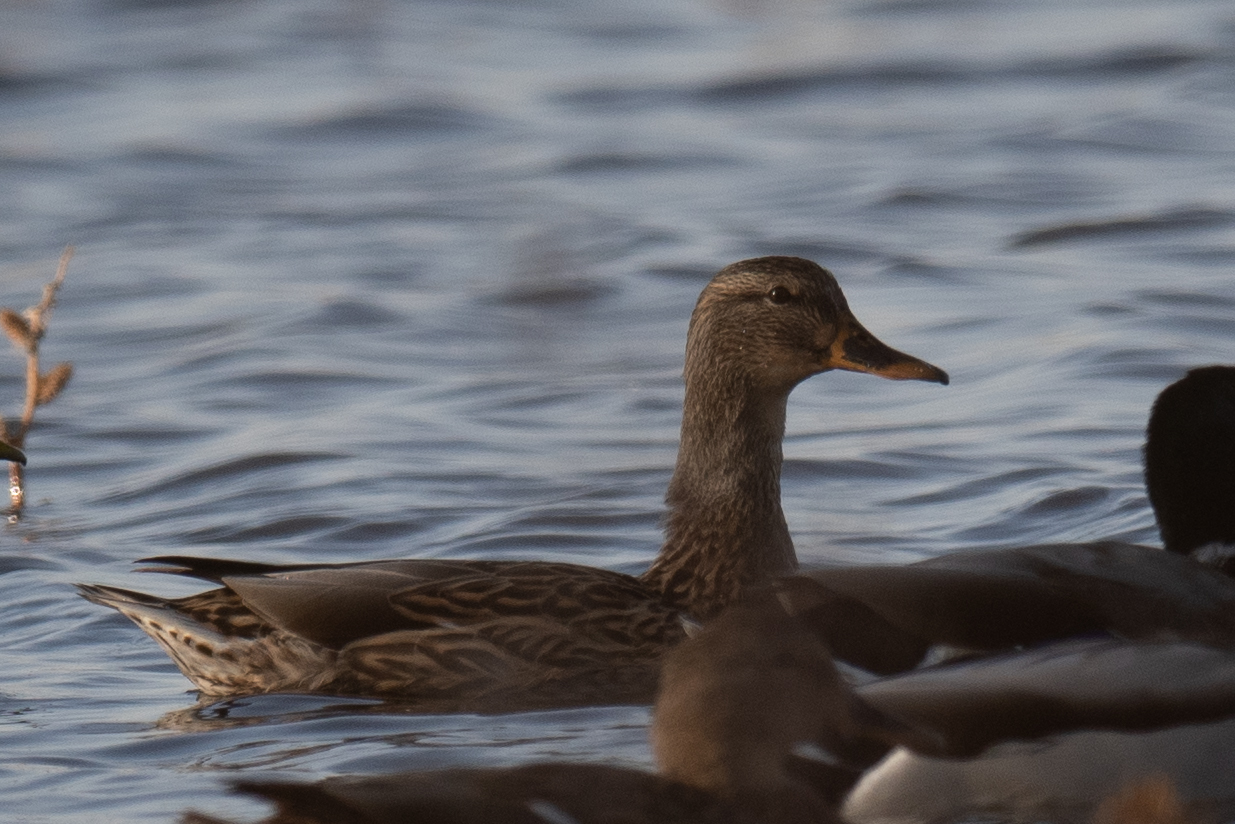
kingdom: Animalia
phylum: Chordata
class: Aves
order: Anseriformes
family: Anatidae
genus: Anas
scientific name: Anas platyrhynchos
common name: Mallard
